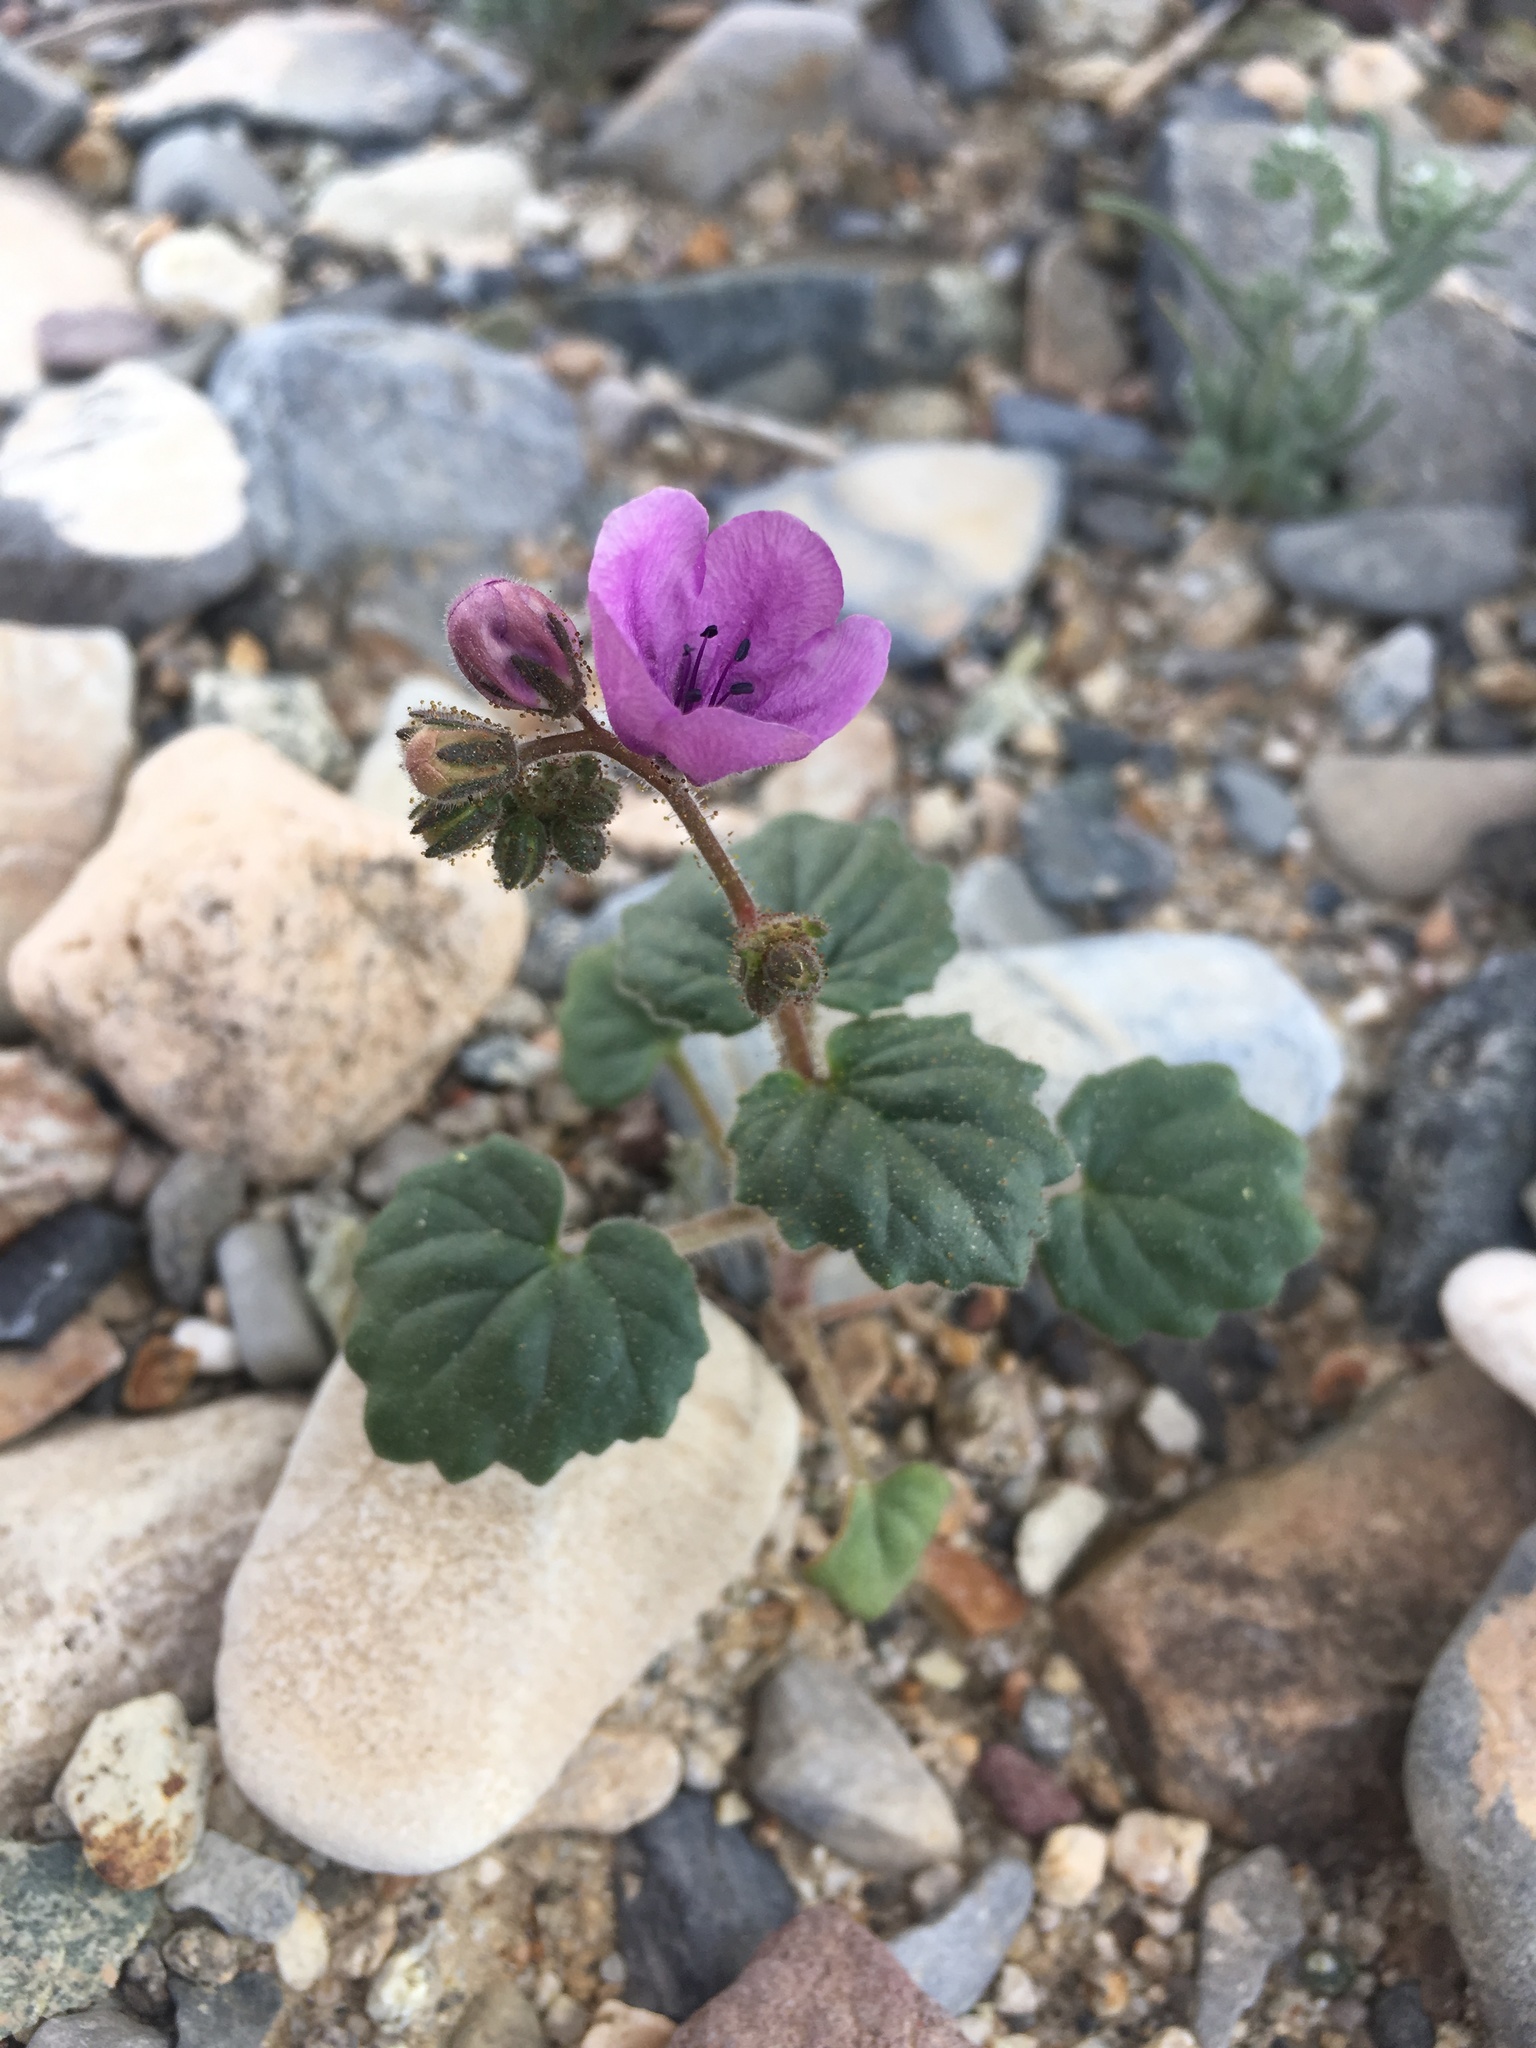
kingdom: Plantae
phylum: Tracheophyta
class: Magnoliopsida
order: Boraginales
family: Hydrophyllaceae
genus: Phacelia
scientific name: Phacelia calthifolia
